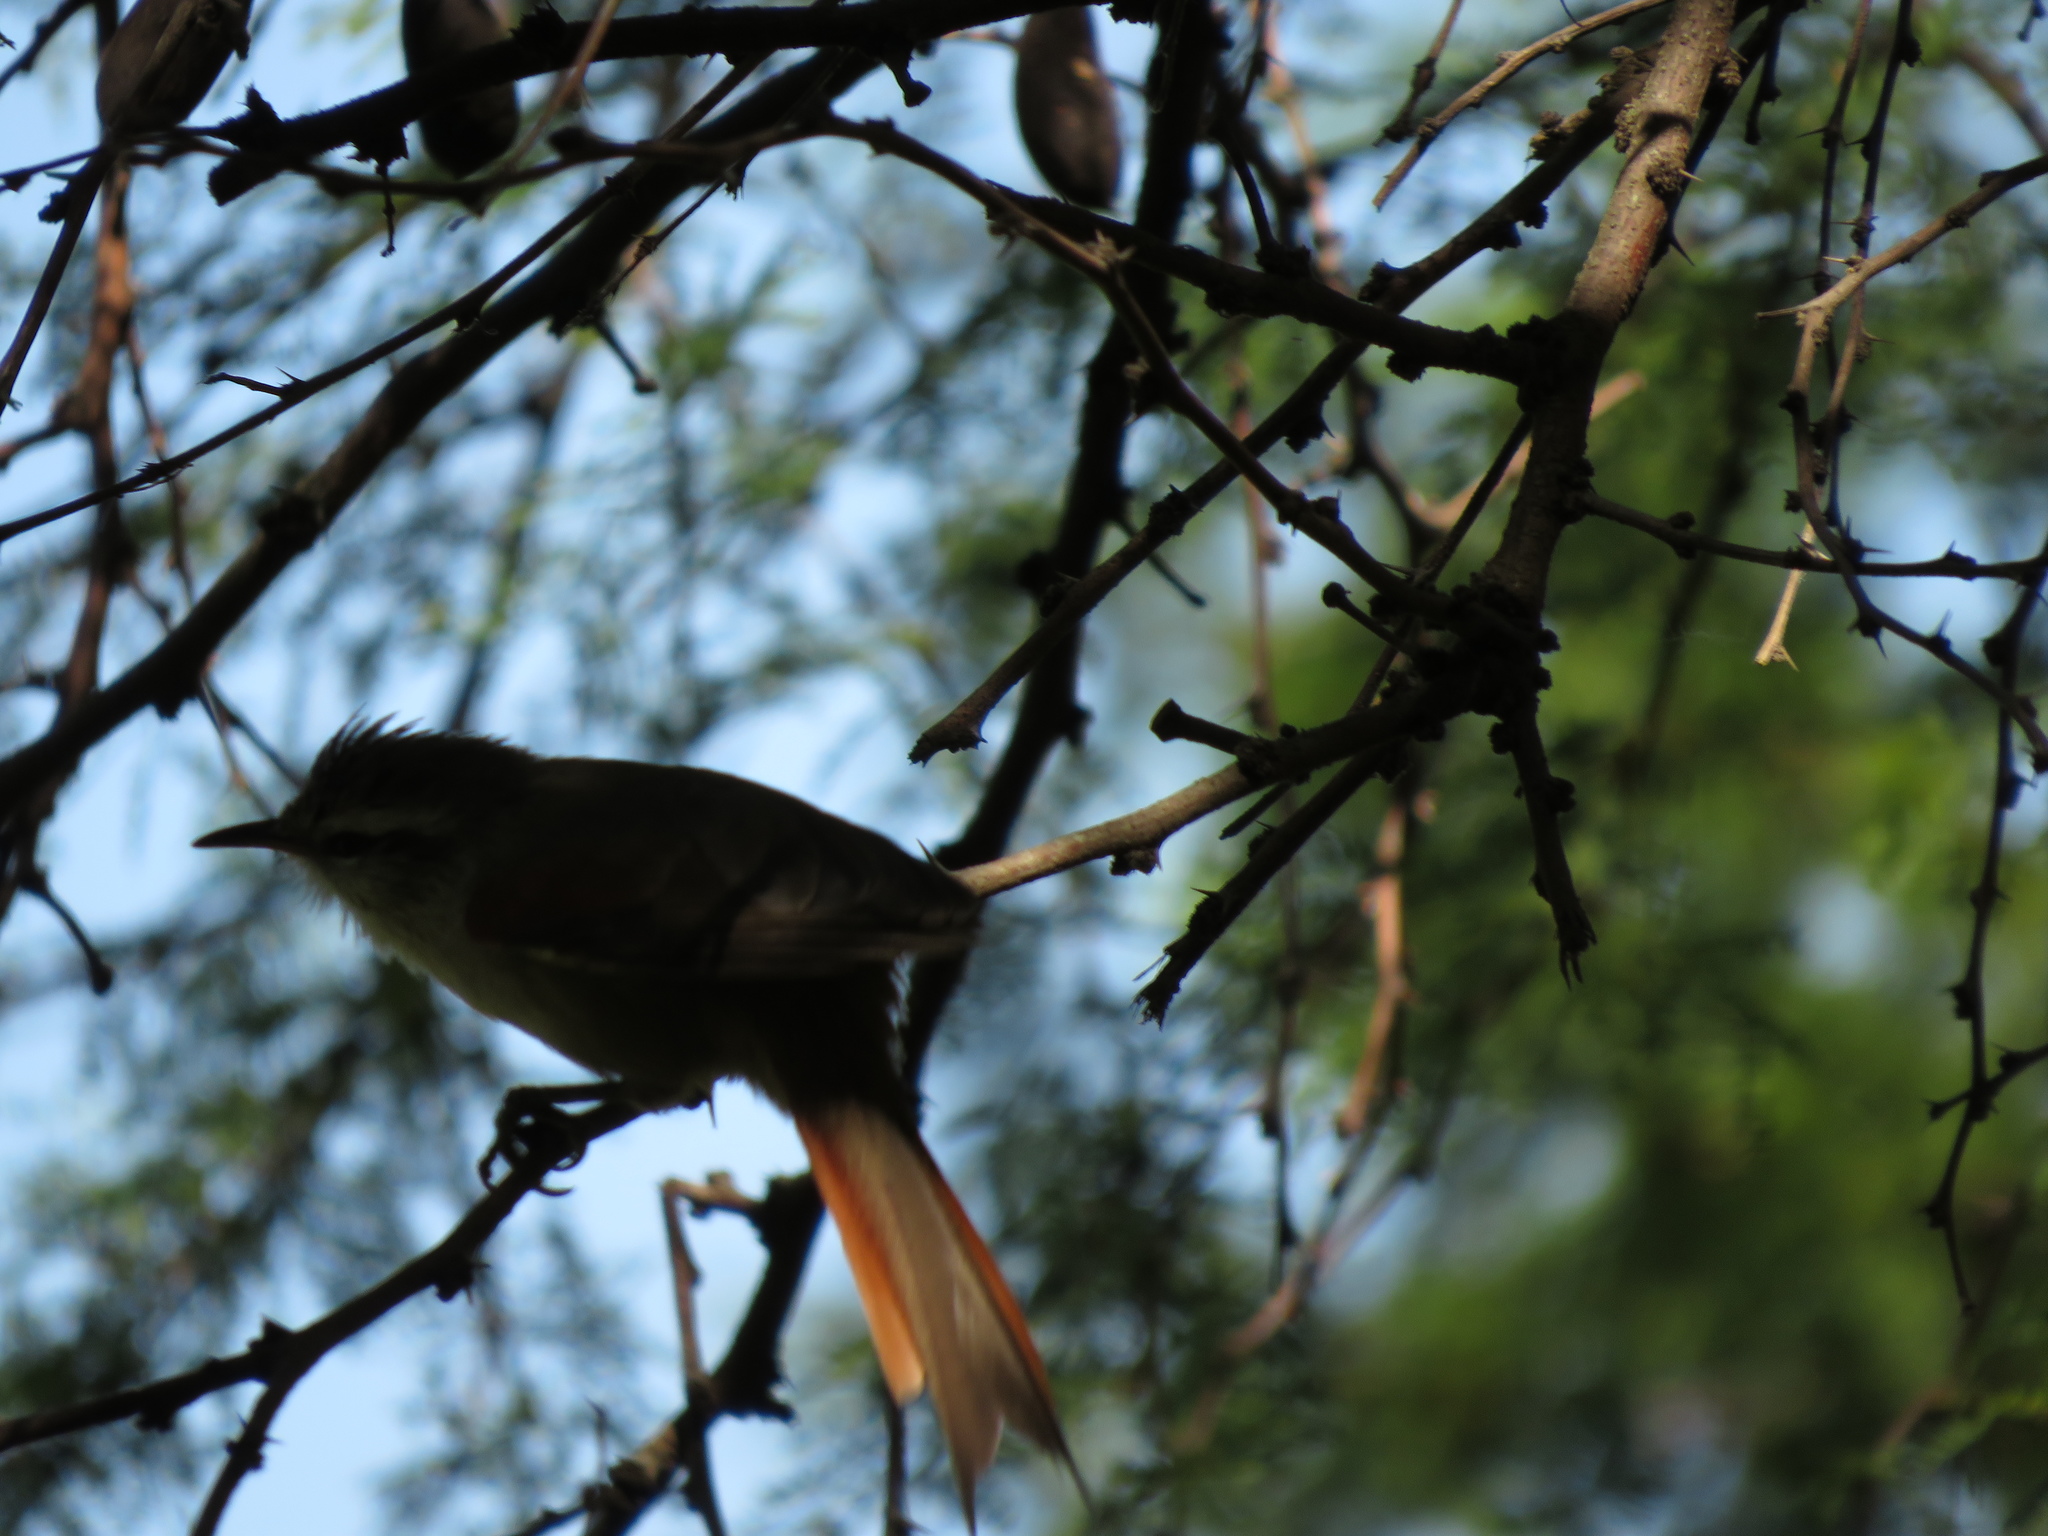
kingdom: Animalia
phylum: Chordata
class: Aves
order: Passeriformes
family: Furnariidae
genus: Cranioleuca
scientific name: Cranioleuca pyrrhophia
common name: Stripe-crowned spinetail
